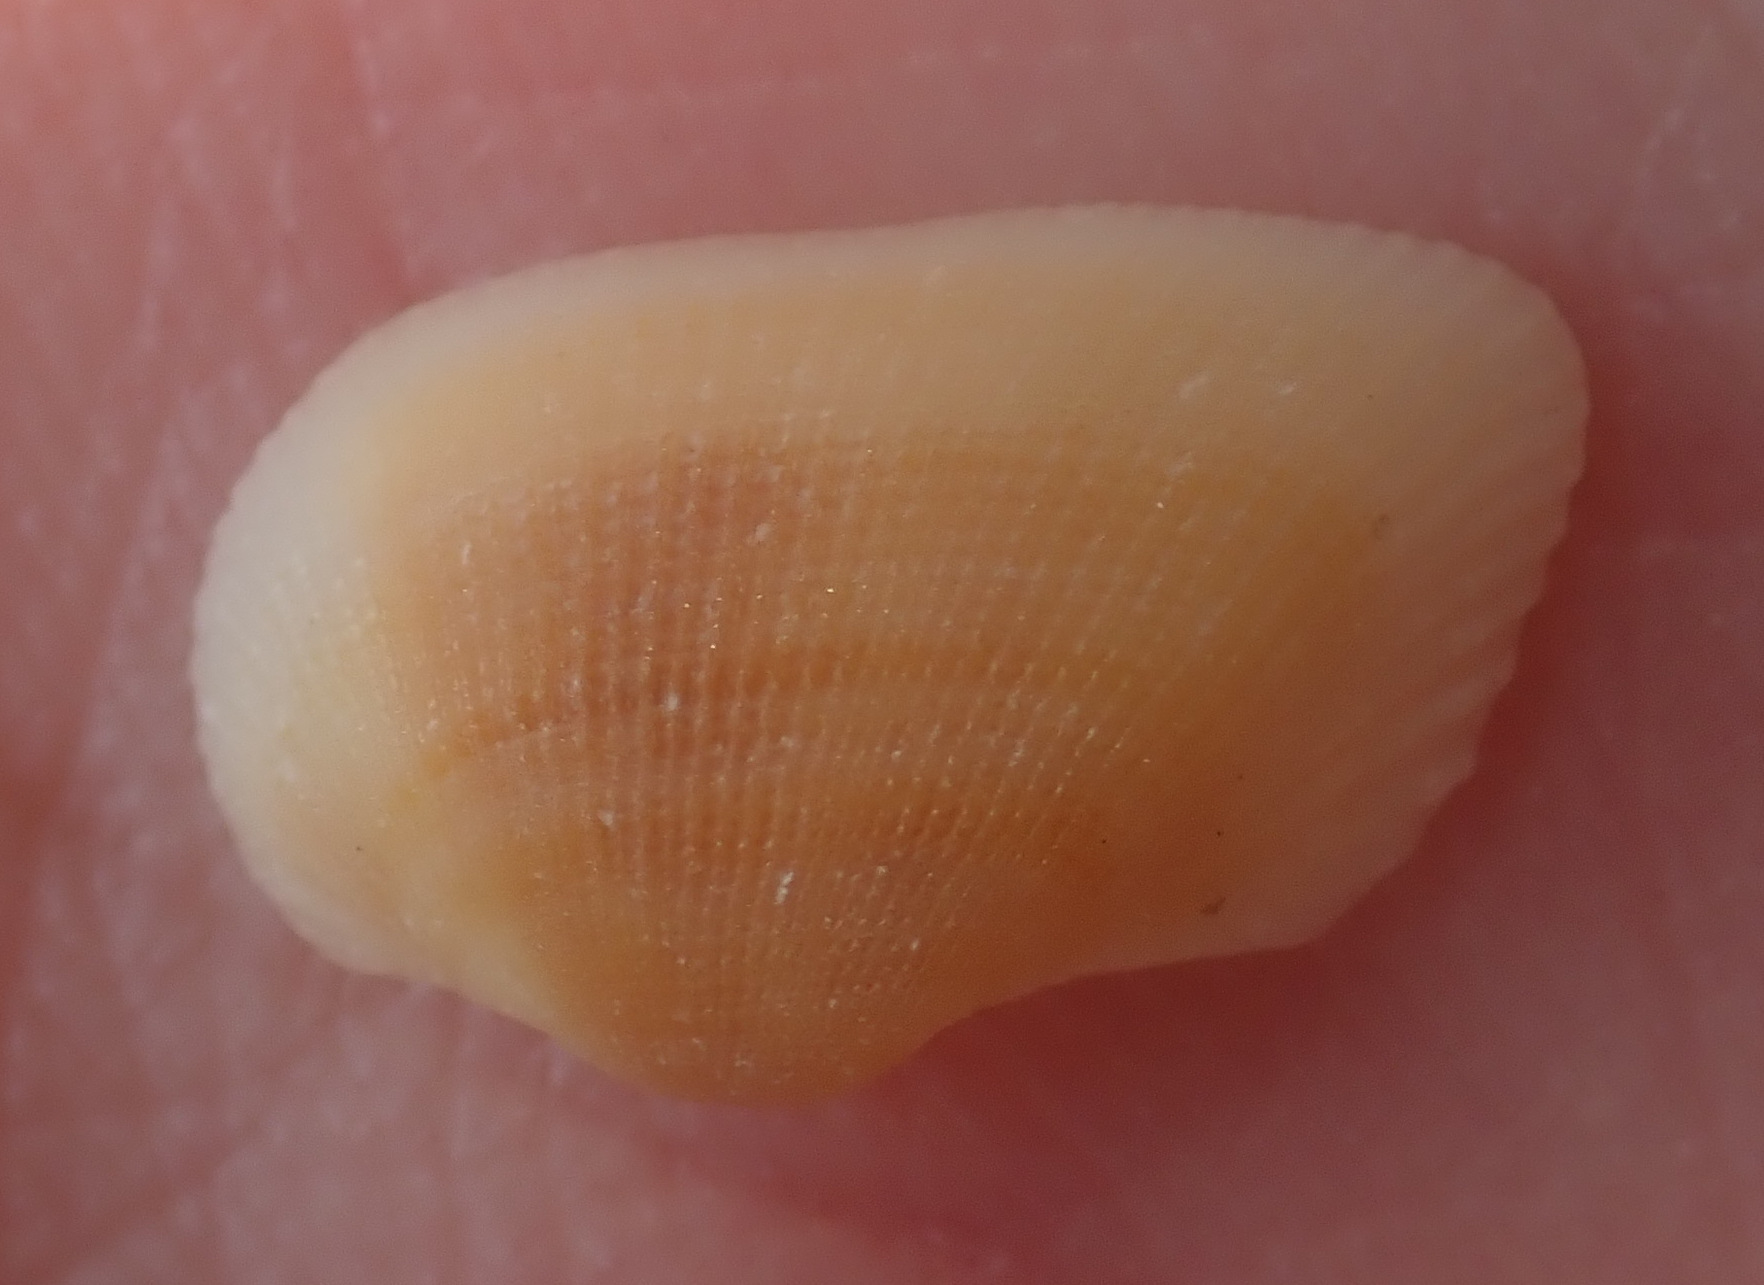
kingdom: Animalia
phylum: Mollusca
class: Bivalvia
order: Arcida
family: Noetiidae
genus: Striarca
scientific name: Striarca lactea
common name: Milky-white ark
